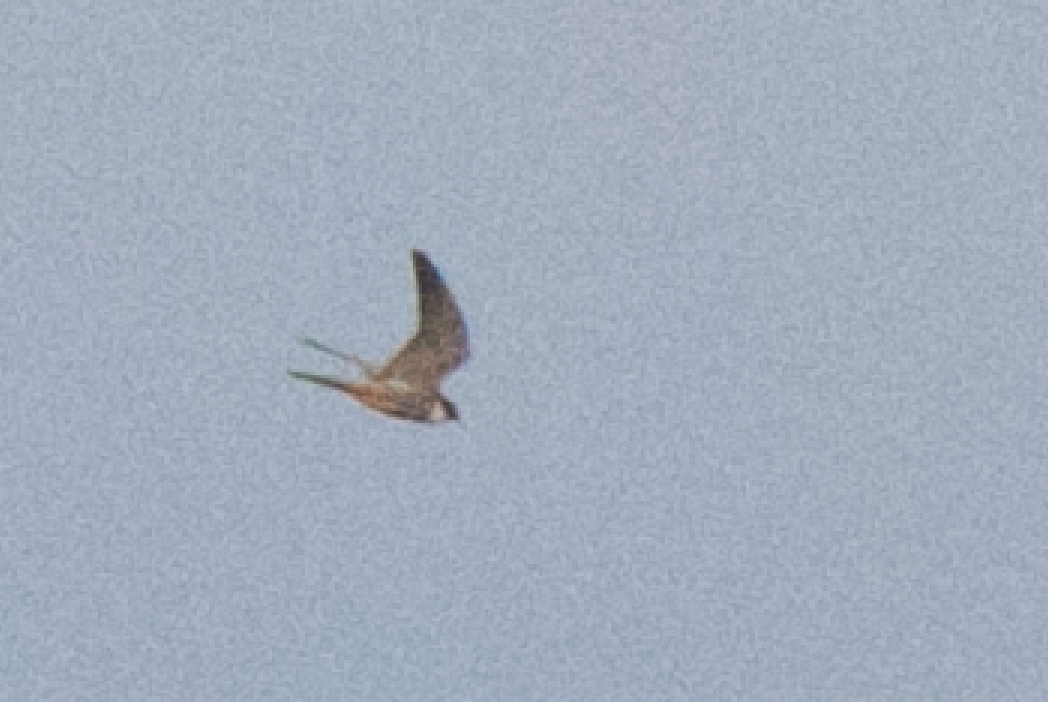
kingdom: Animalia
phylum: Chordata
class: Aves
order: Falconiformes
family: Falconidae
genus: Falco
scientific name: Falco subbuteo
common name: Eurasian hobby
